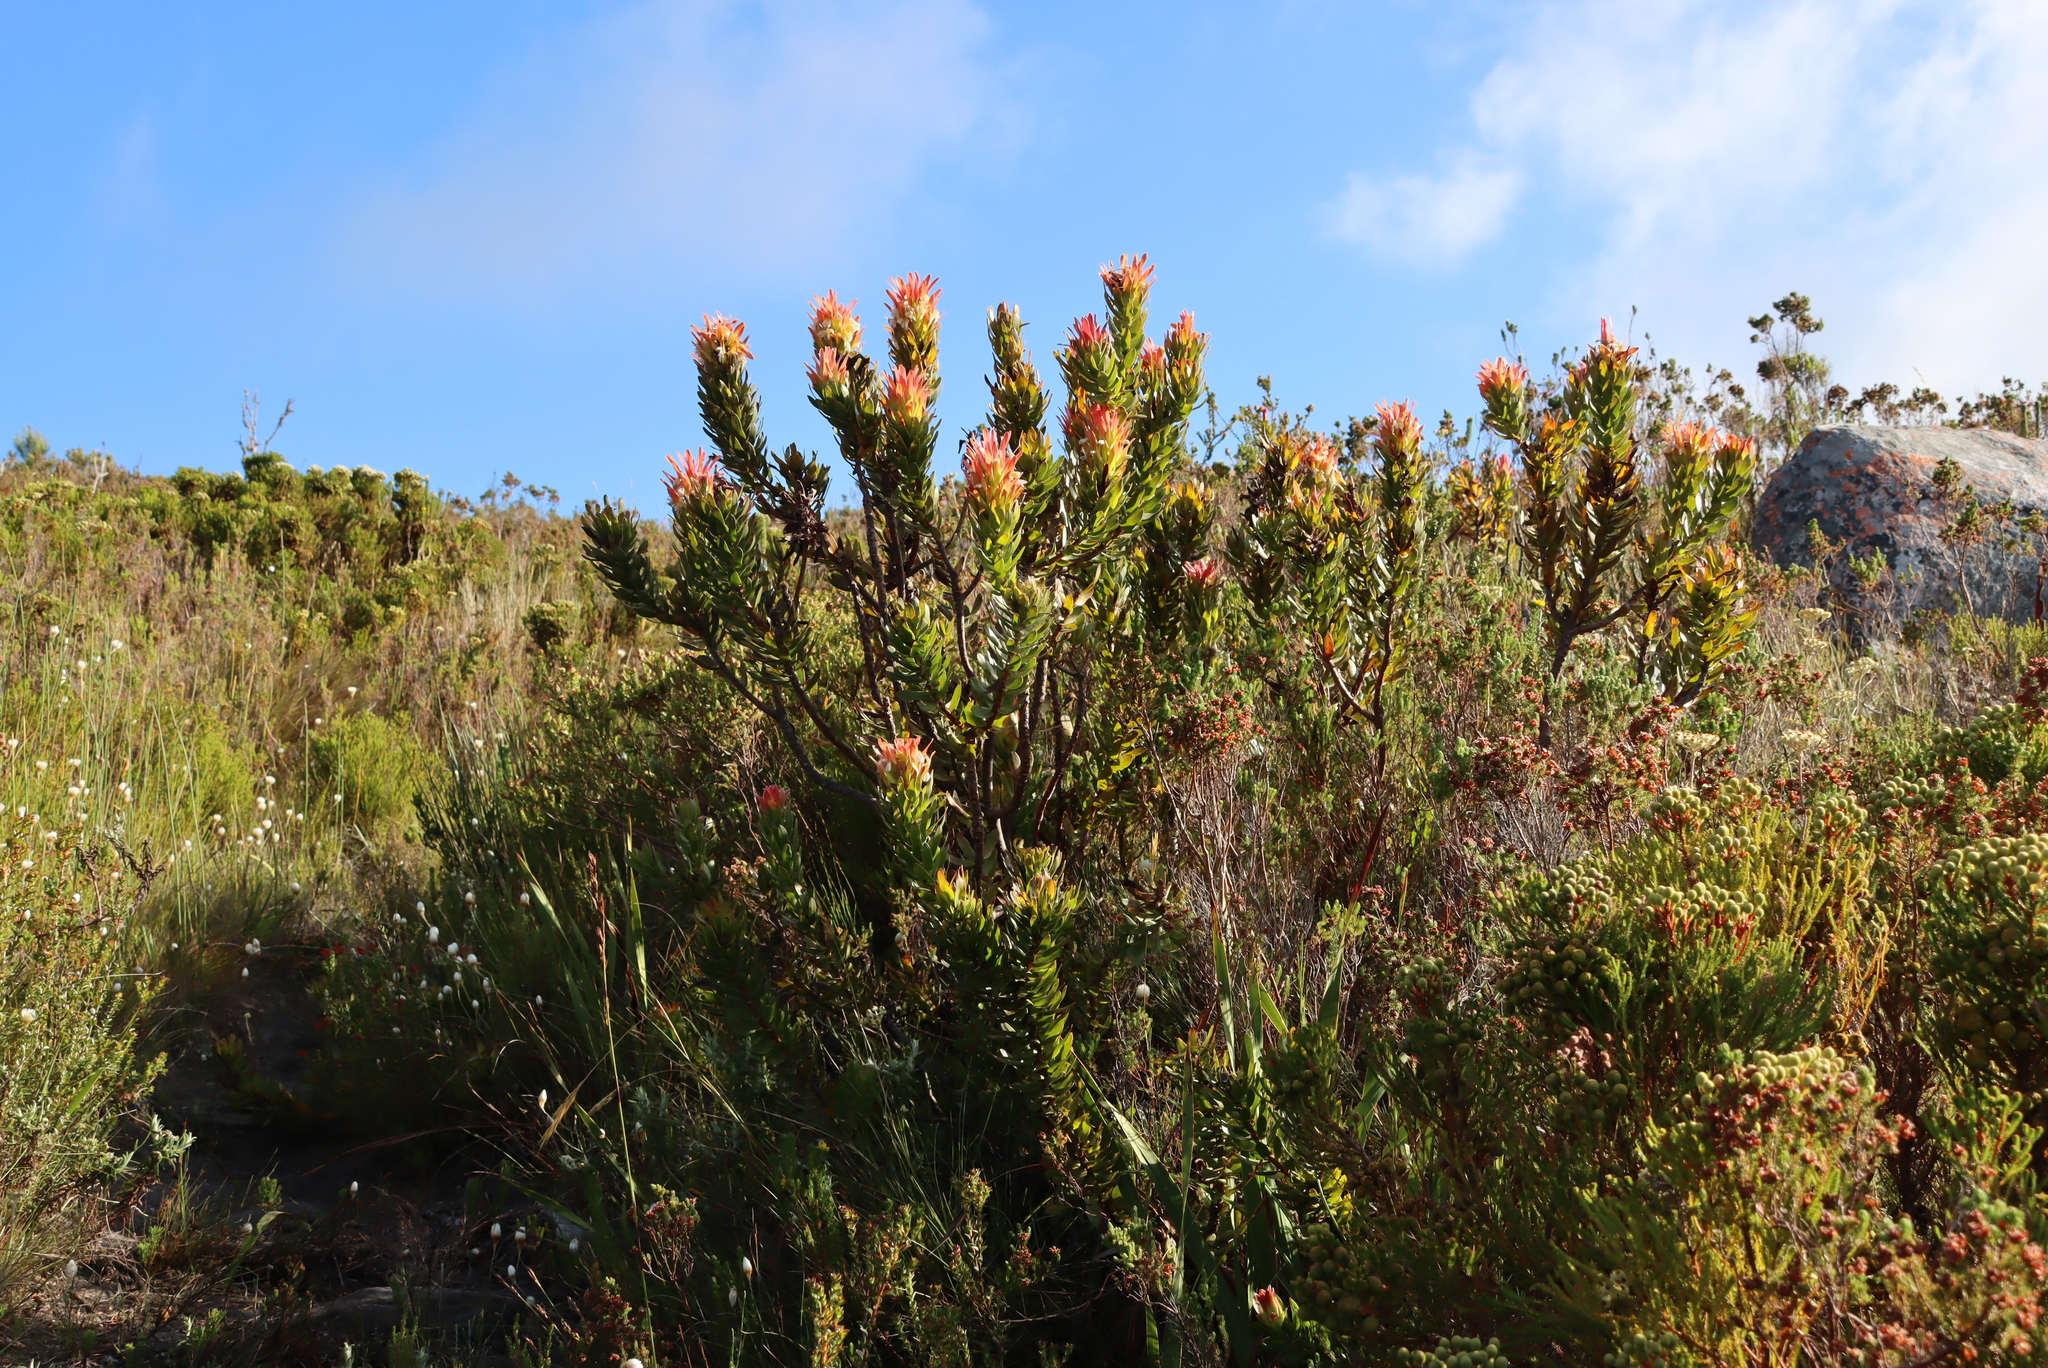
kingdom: Plantae
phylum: Tracheophyta
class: Magnoliopsida
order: Proteales
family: Proteaceae
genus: Mimetes
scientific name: Mimetes cucullatus
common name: Common pagoda
